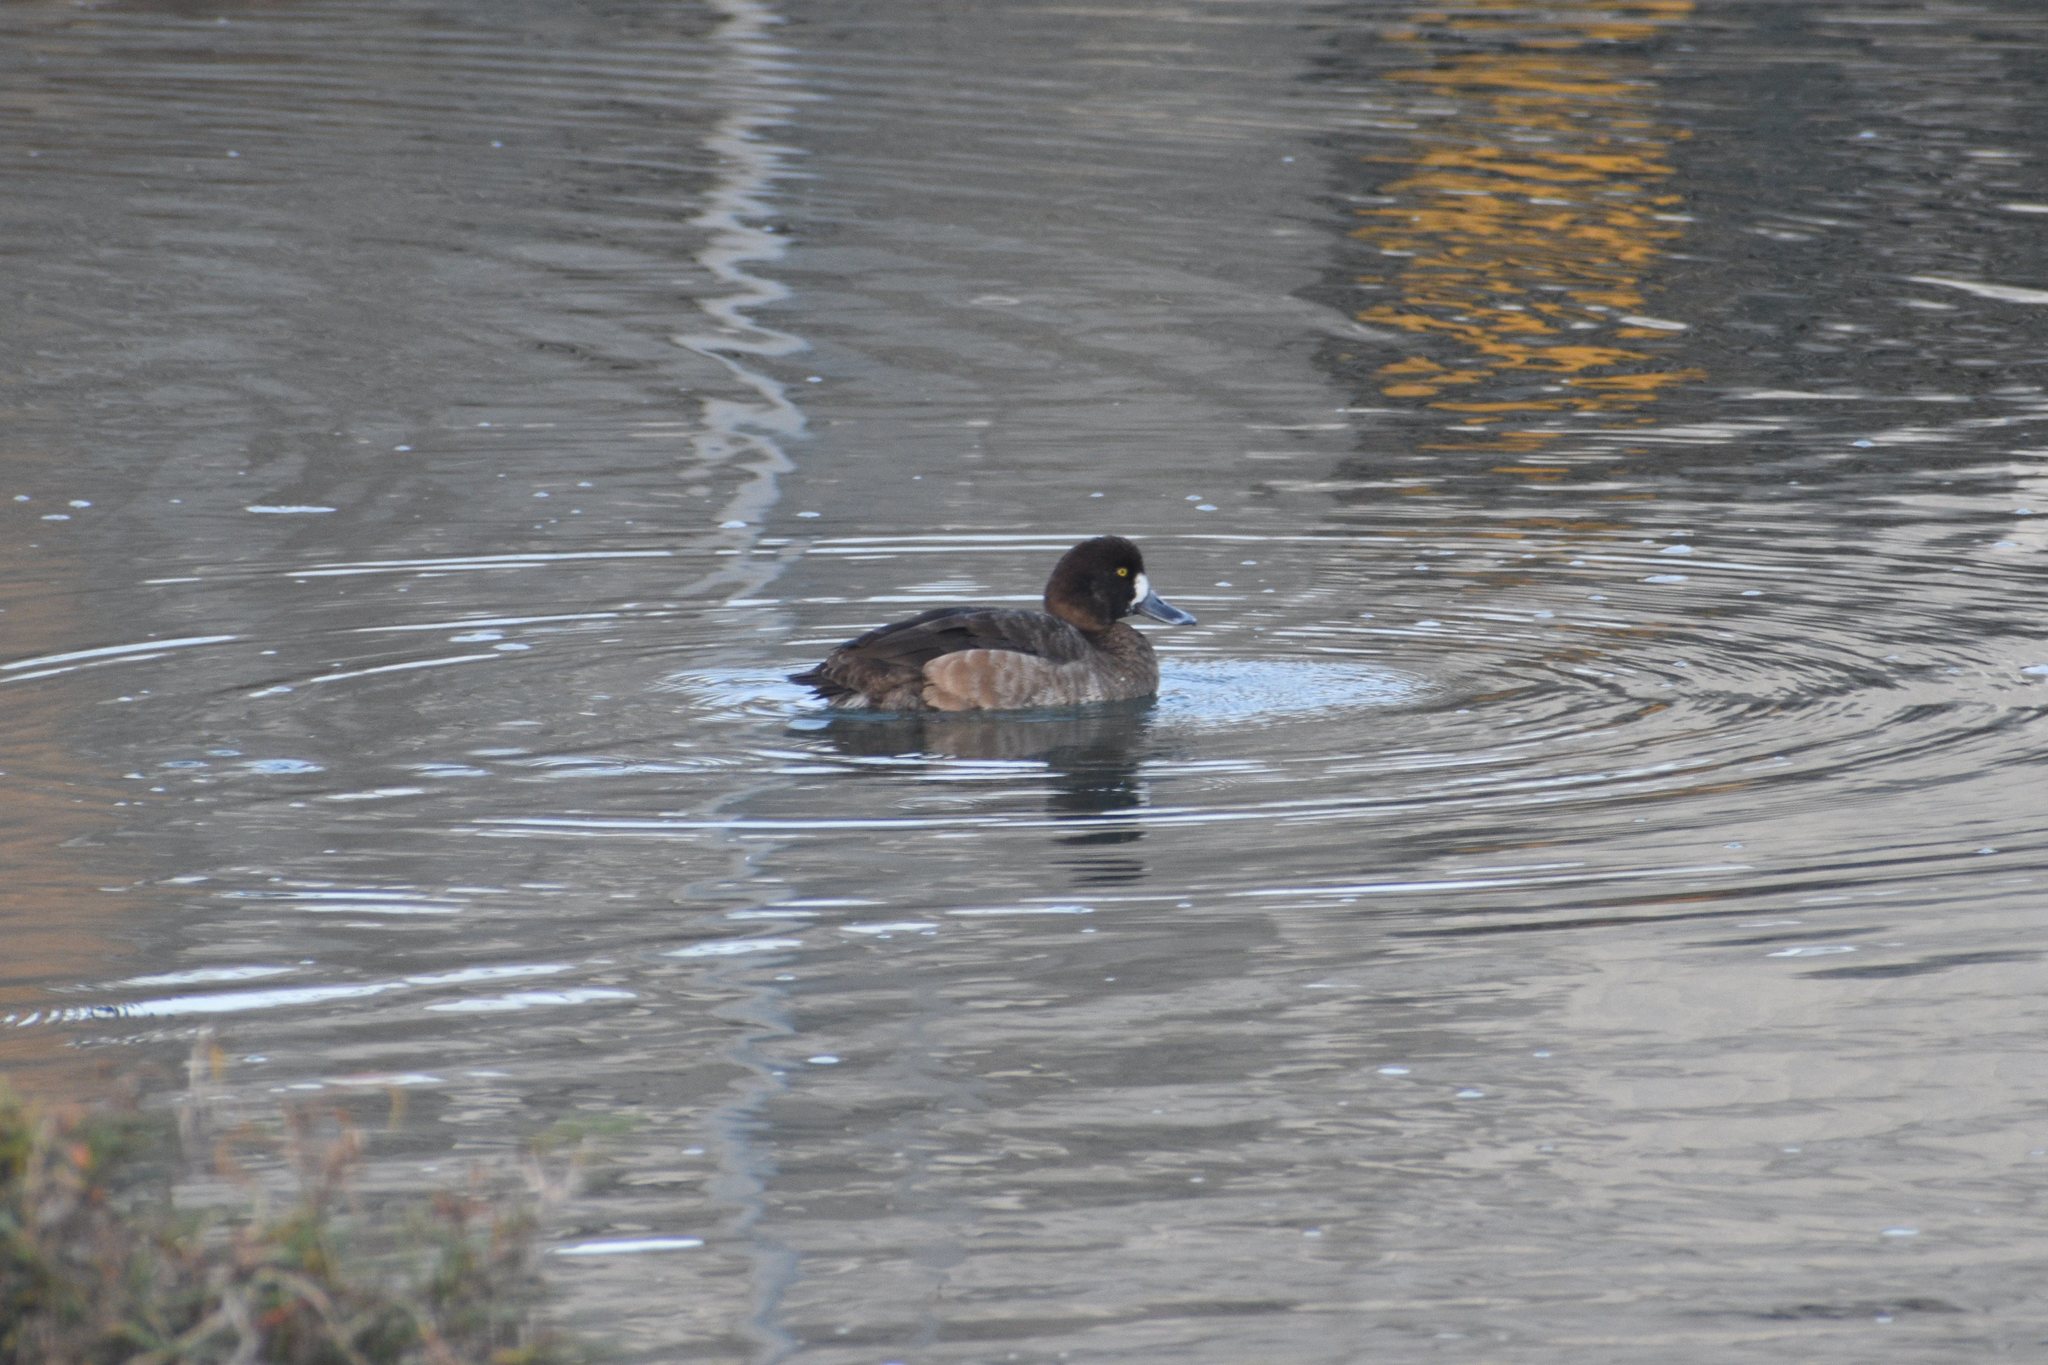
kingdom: Animalia
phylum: Chordata
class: Aves
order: Anseriformes
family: Anatidae
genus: Aythya
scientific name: Aythya marila
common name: Greater scaup
